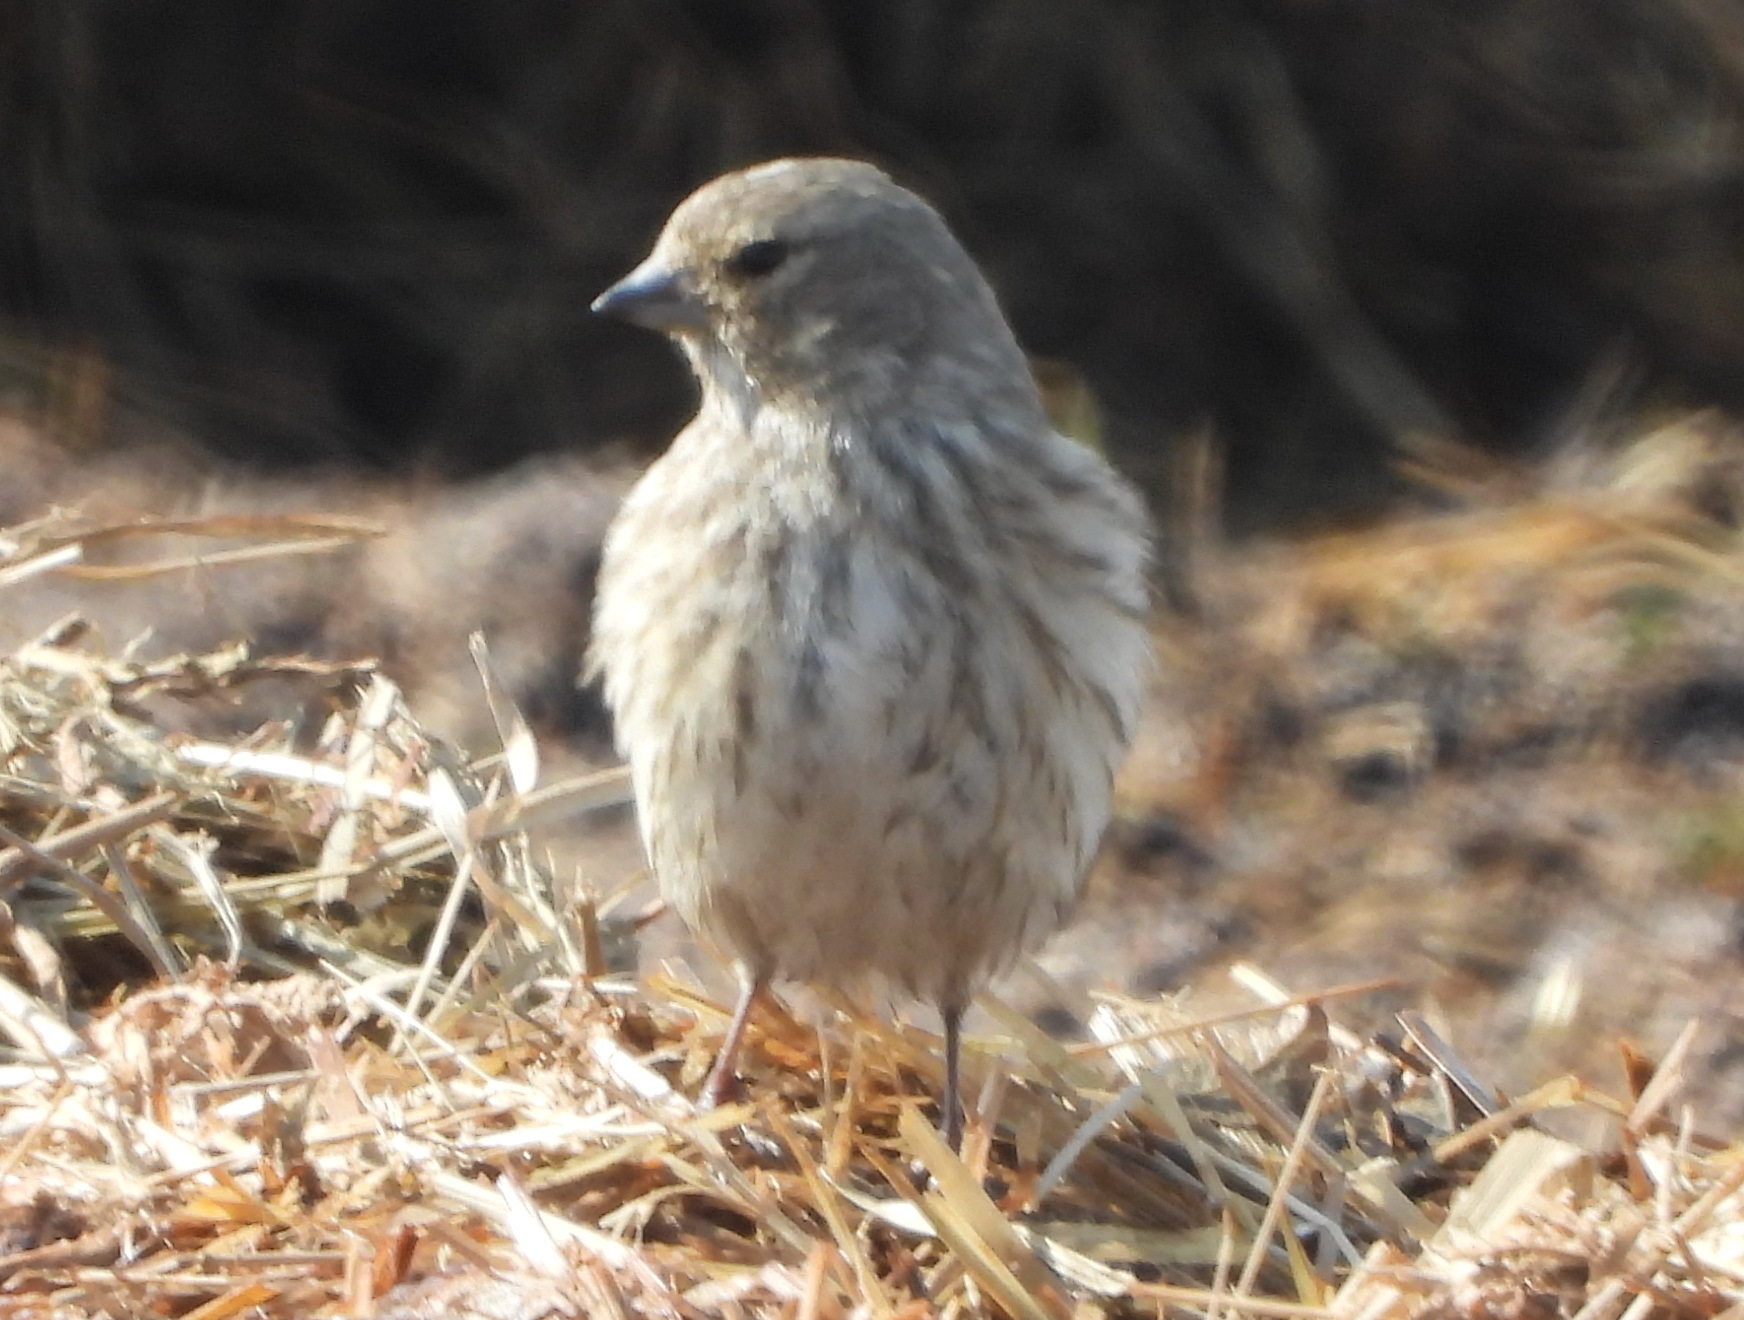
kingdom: Animalia
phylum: Chordata
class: Aves
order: Passeriformes
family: Fringillidae
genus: Linaria
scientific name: Linaria cannabina
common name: Common linnet
